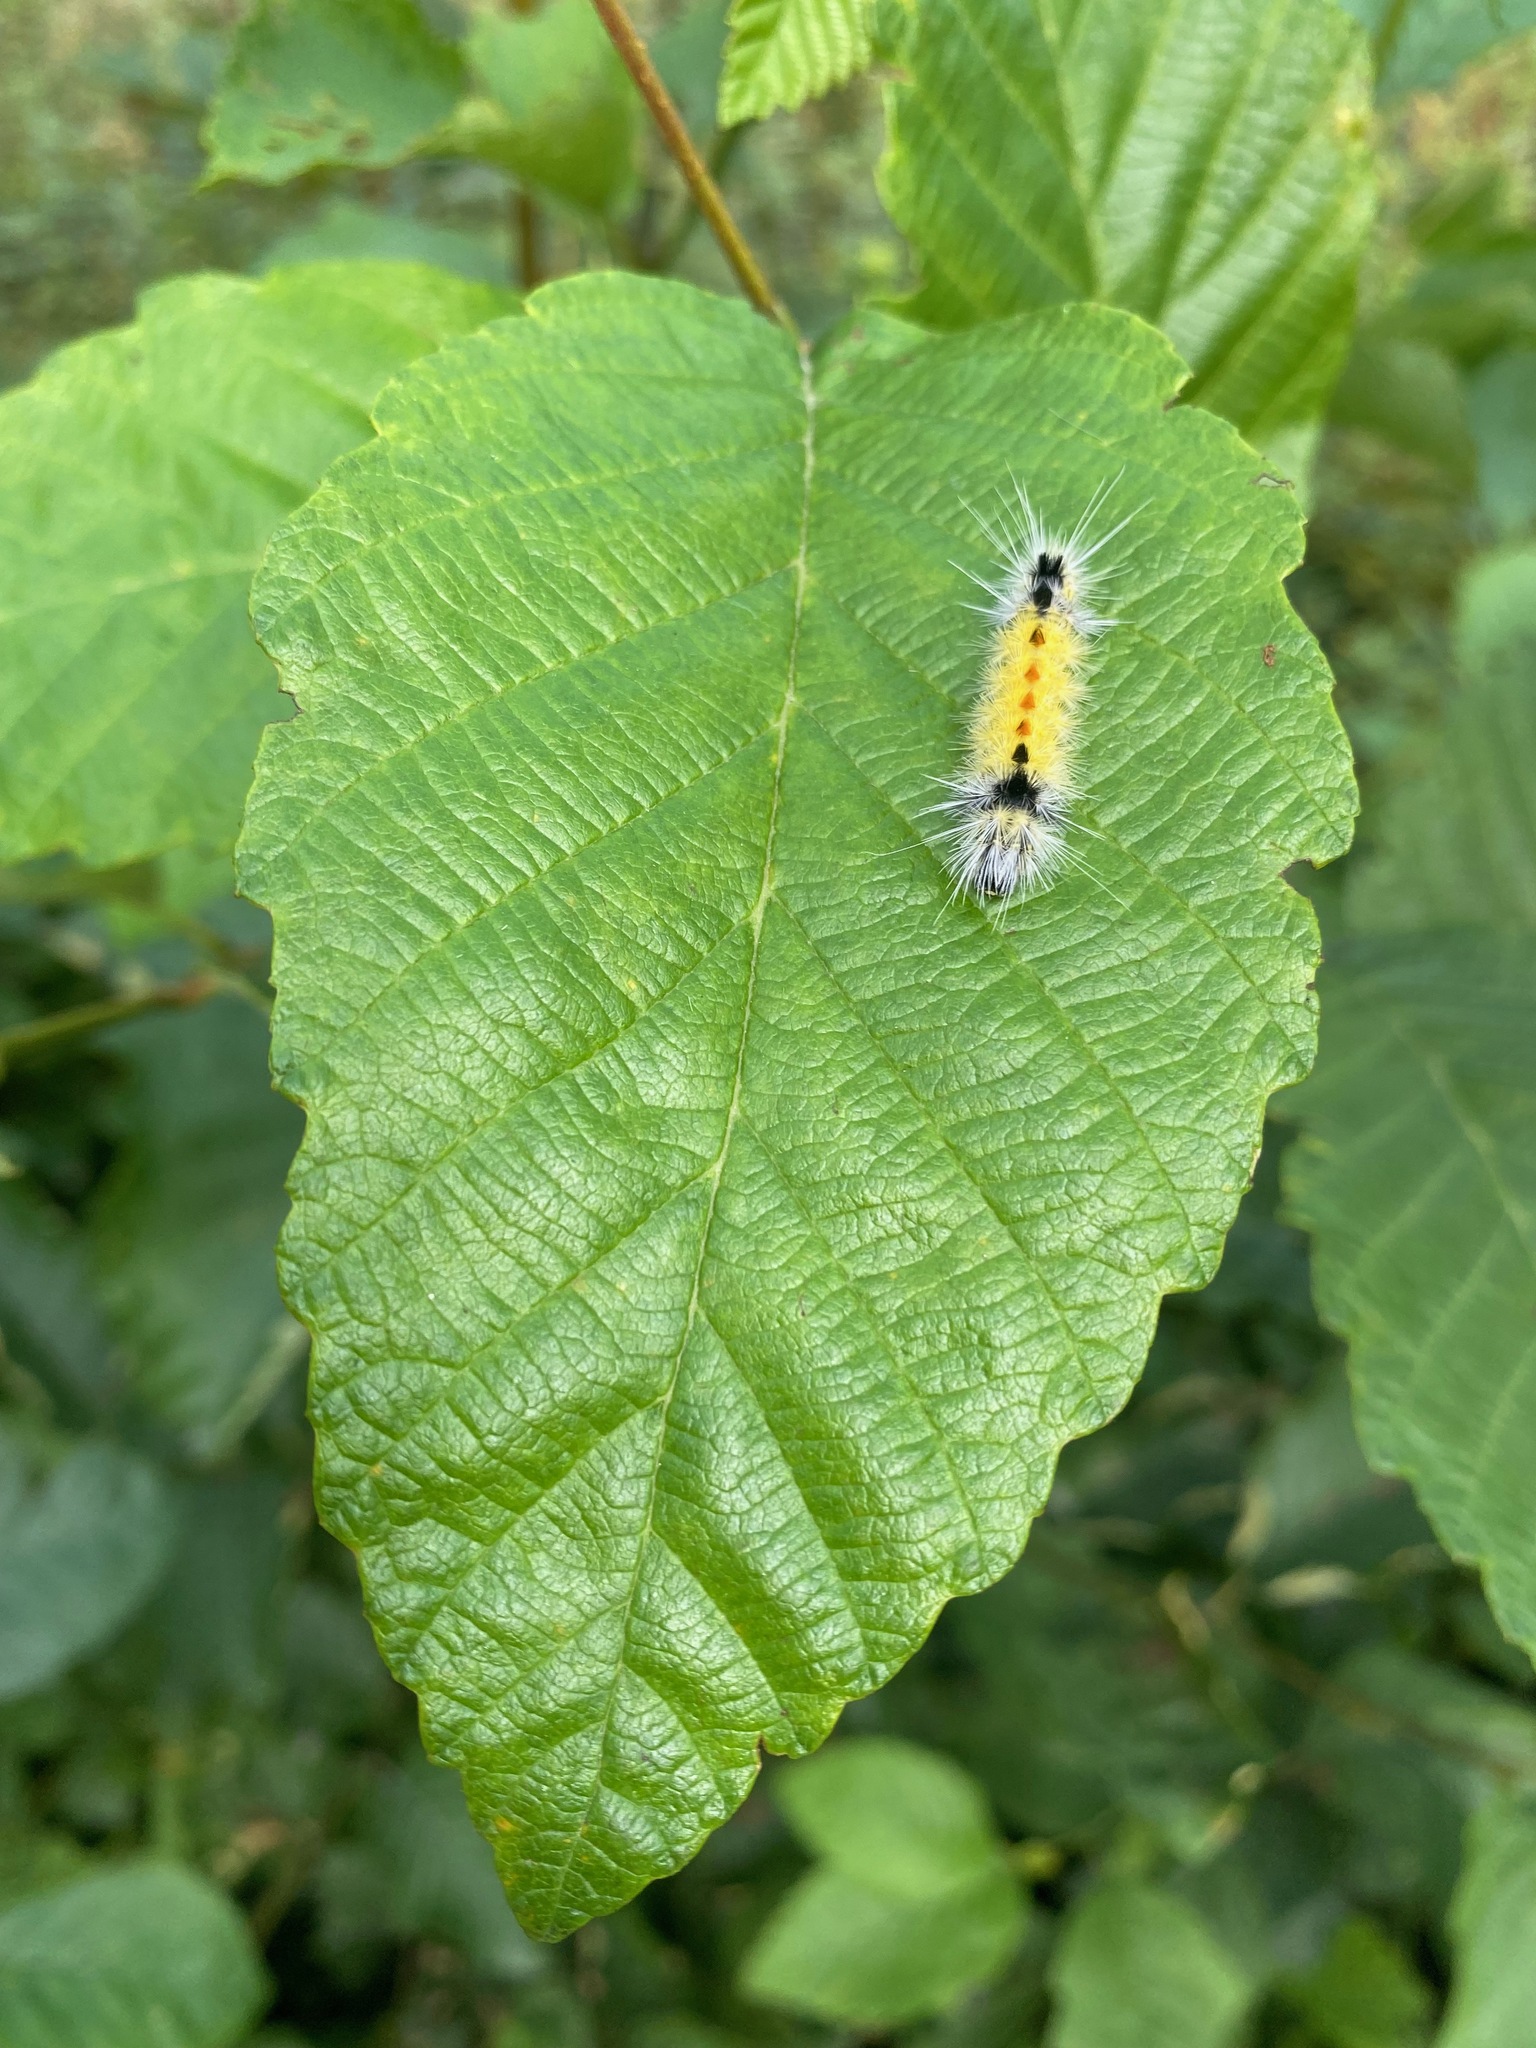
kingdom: Animalia
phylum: Arthropoda
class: Insecta
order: Lepidoptera
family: Erebidae
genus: Lophocampa
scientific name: Lophocampa maculata
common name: Spotted tussock moth
